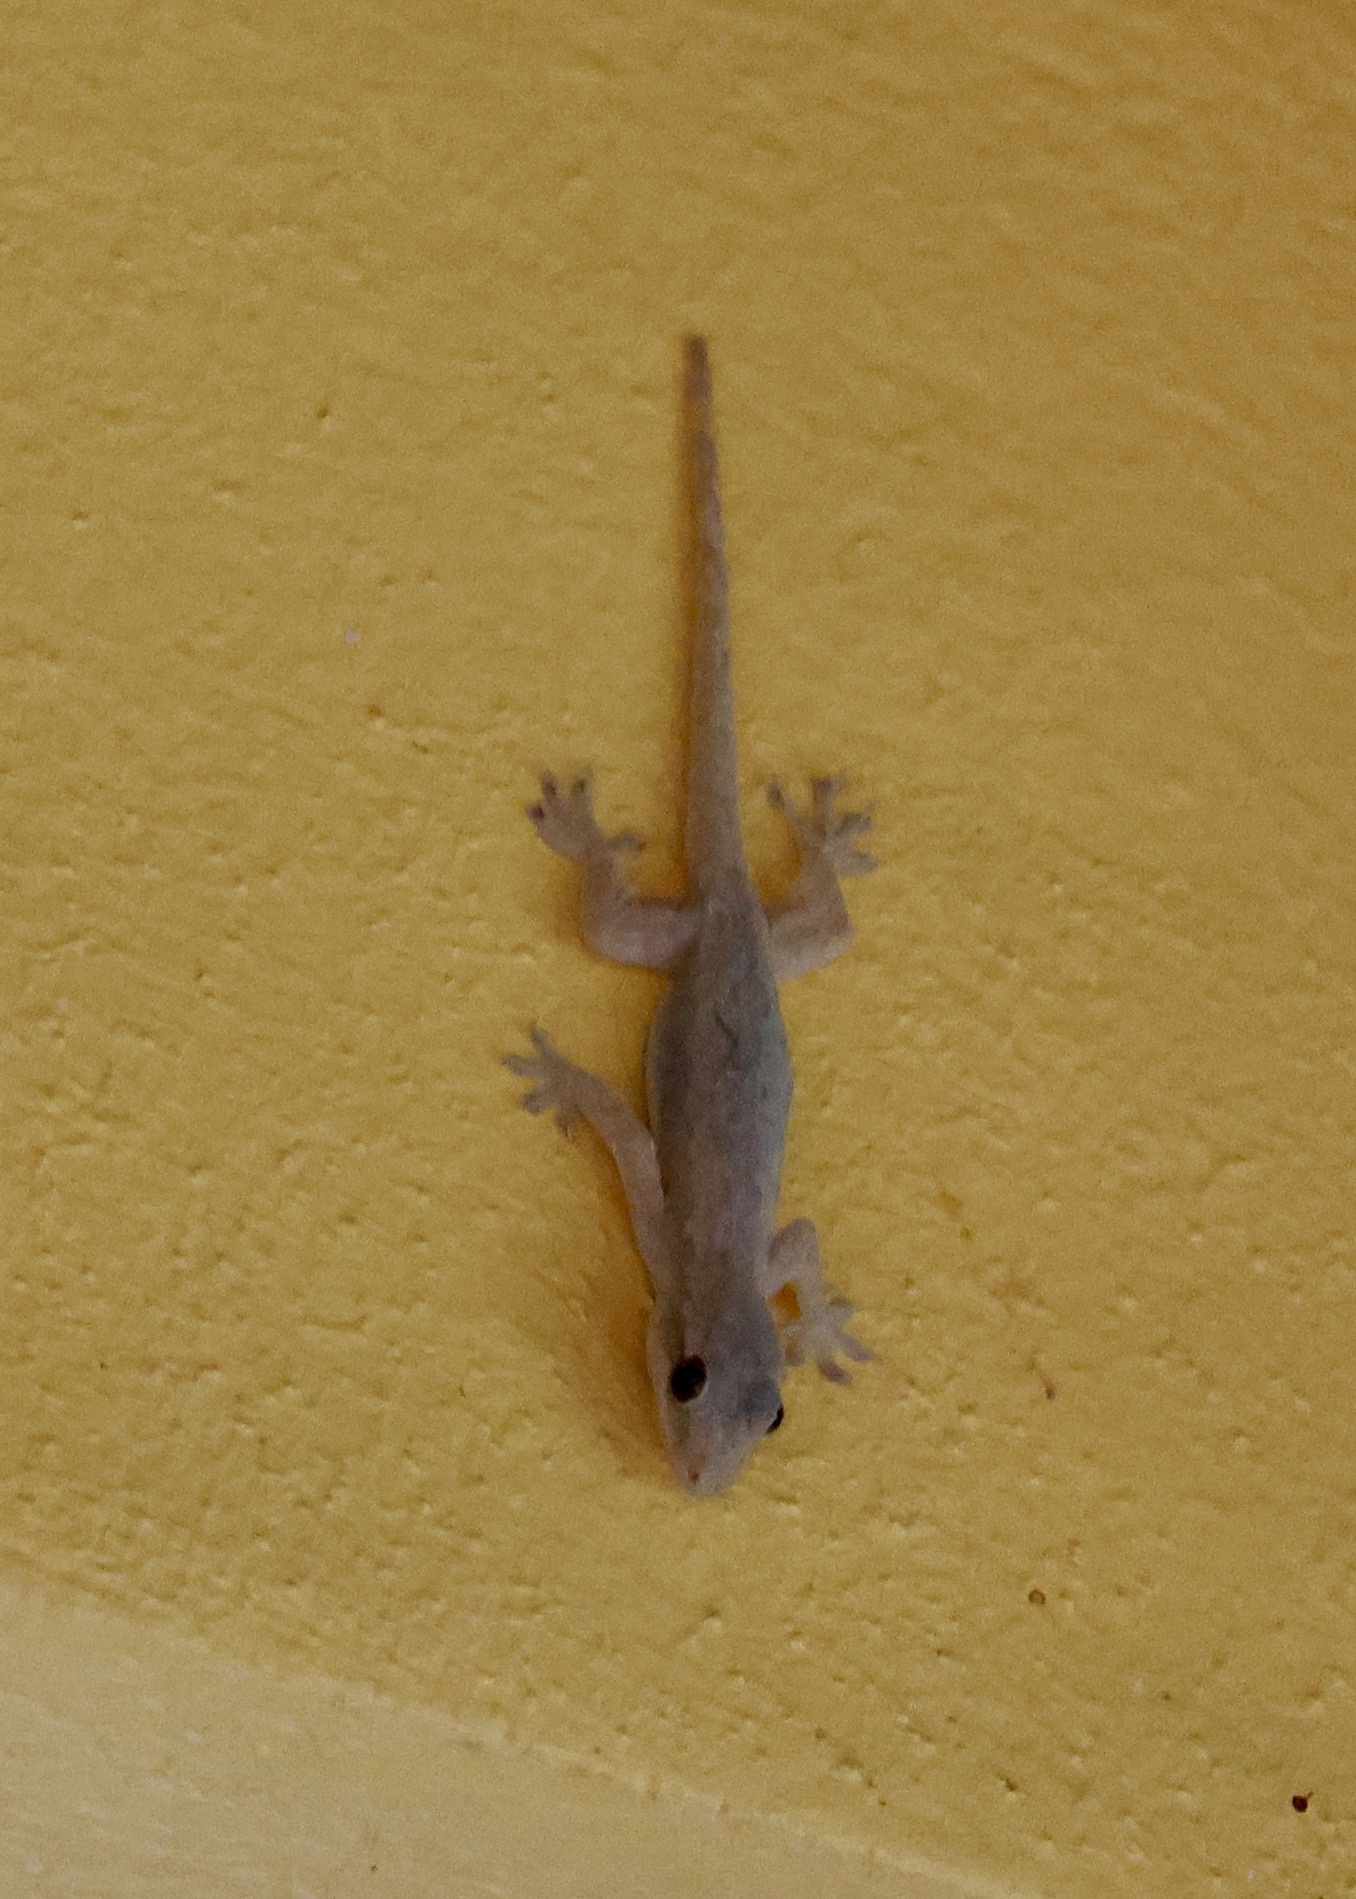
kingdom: Animalia
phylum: Chordata
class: Squamata
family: Gekkonidae
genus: Hemidactylus
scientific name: Hemidactylus platyurus
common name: Flat-tailed house gecko
